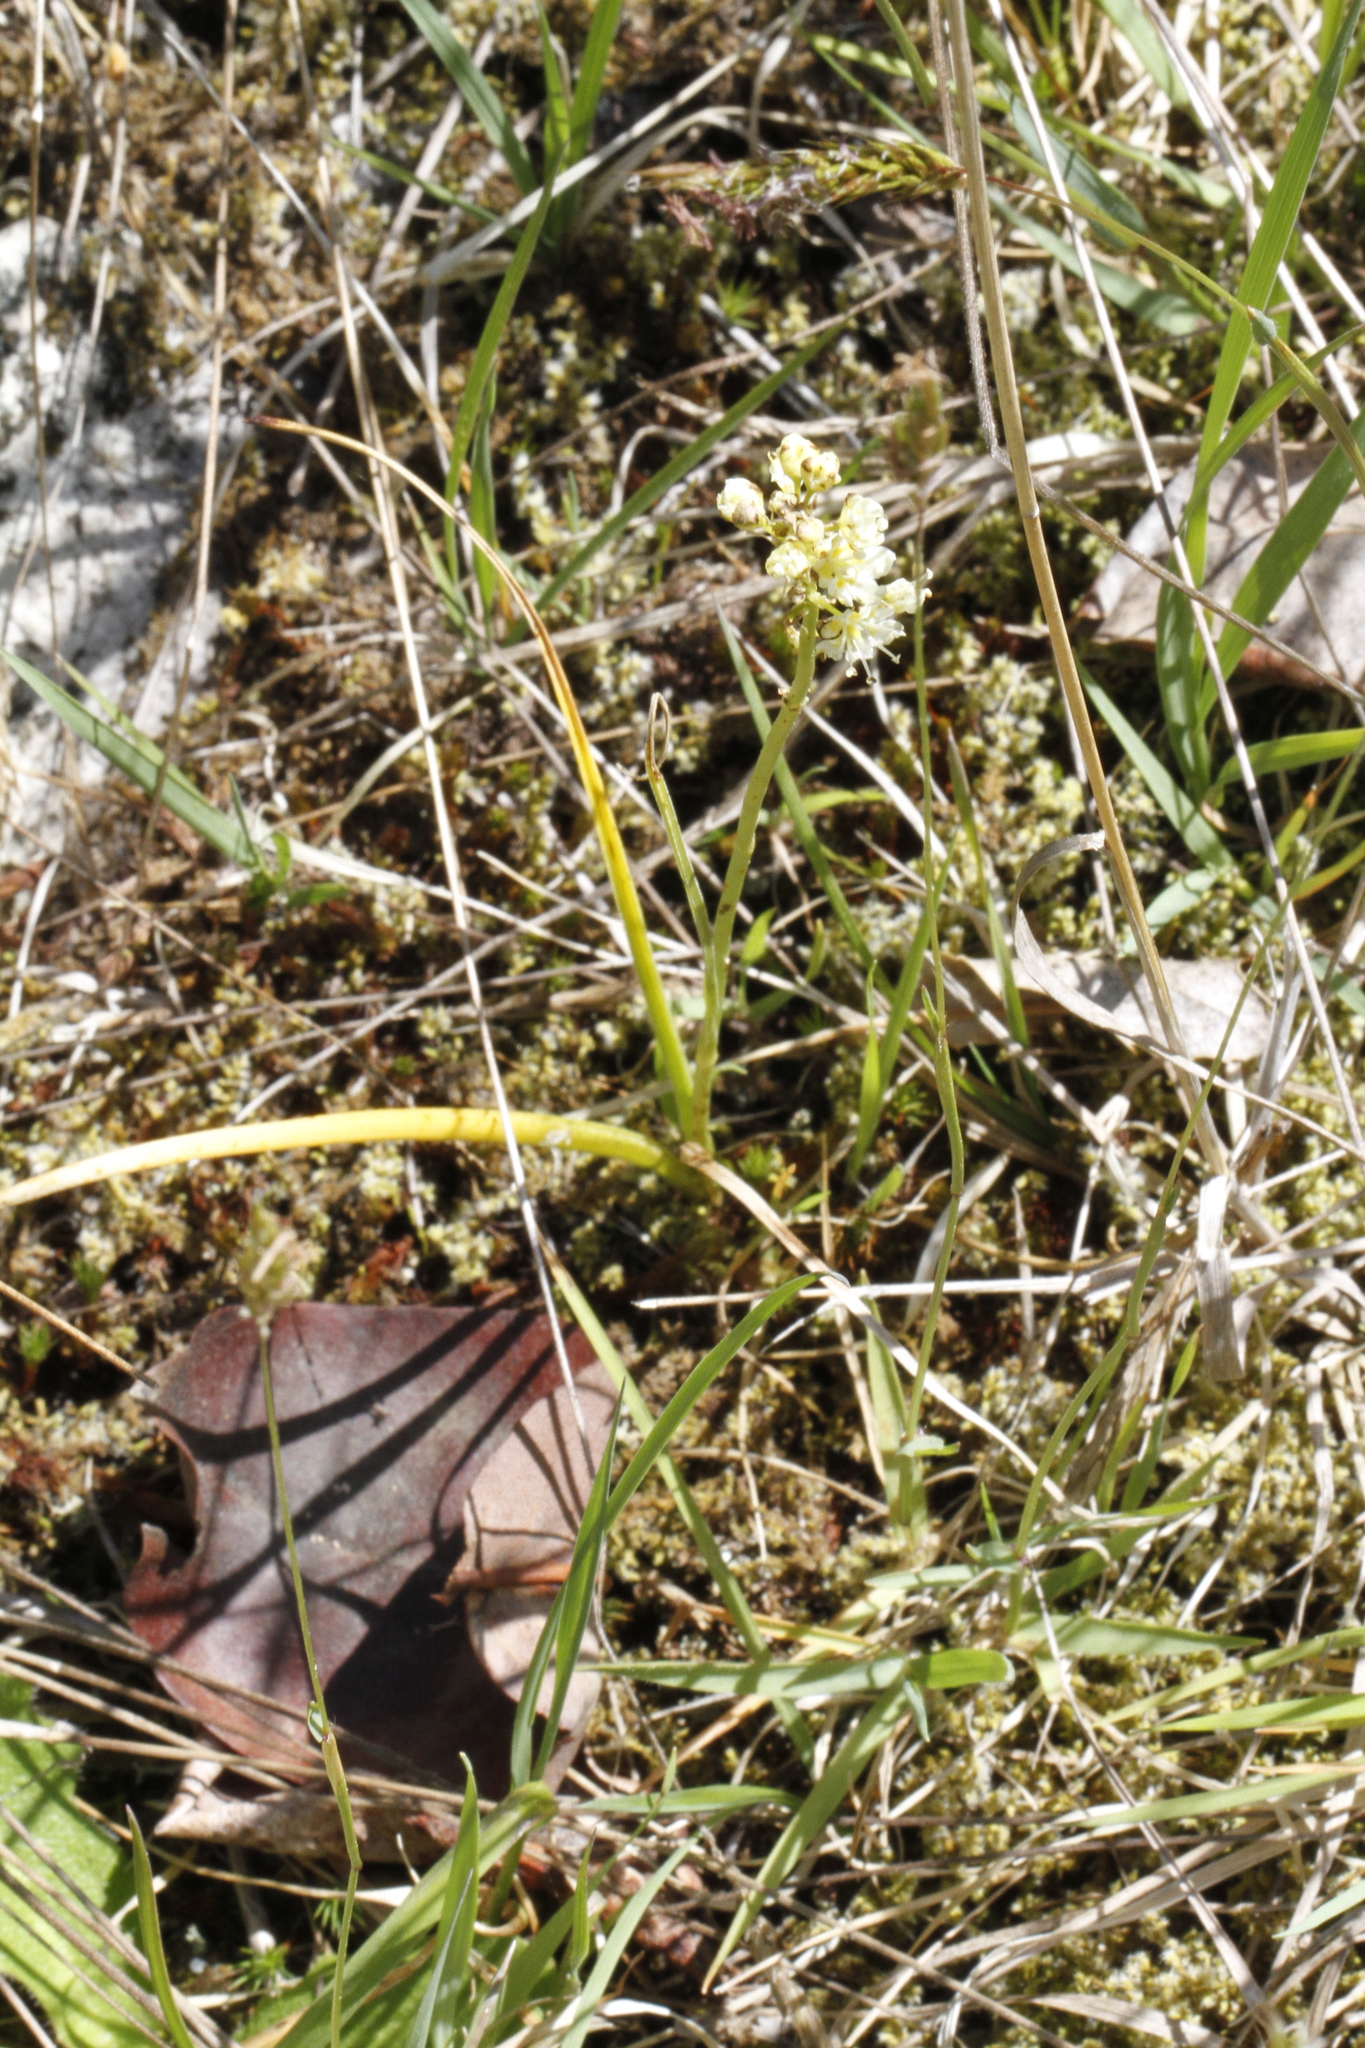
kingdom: Plantae
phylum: Tracheophyta
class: Liliopsida
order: Liliales
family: Melanthiaceae
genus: Toxicoscordion
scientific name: Toxicoscordion venenosum
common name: Meadow death camas
